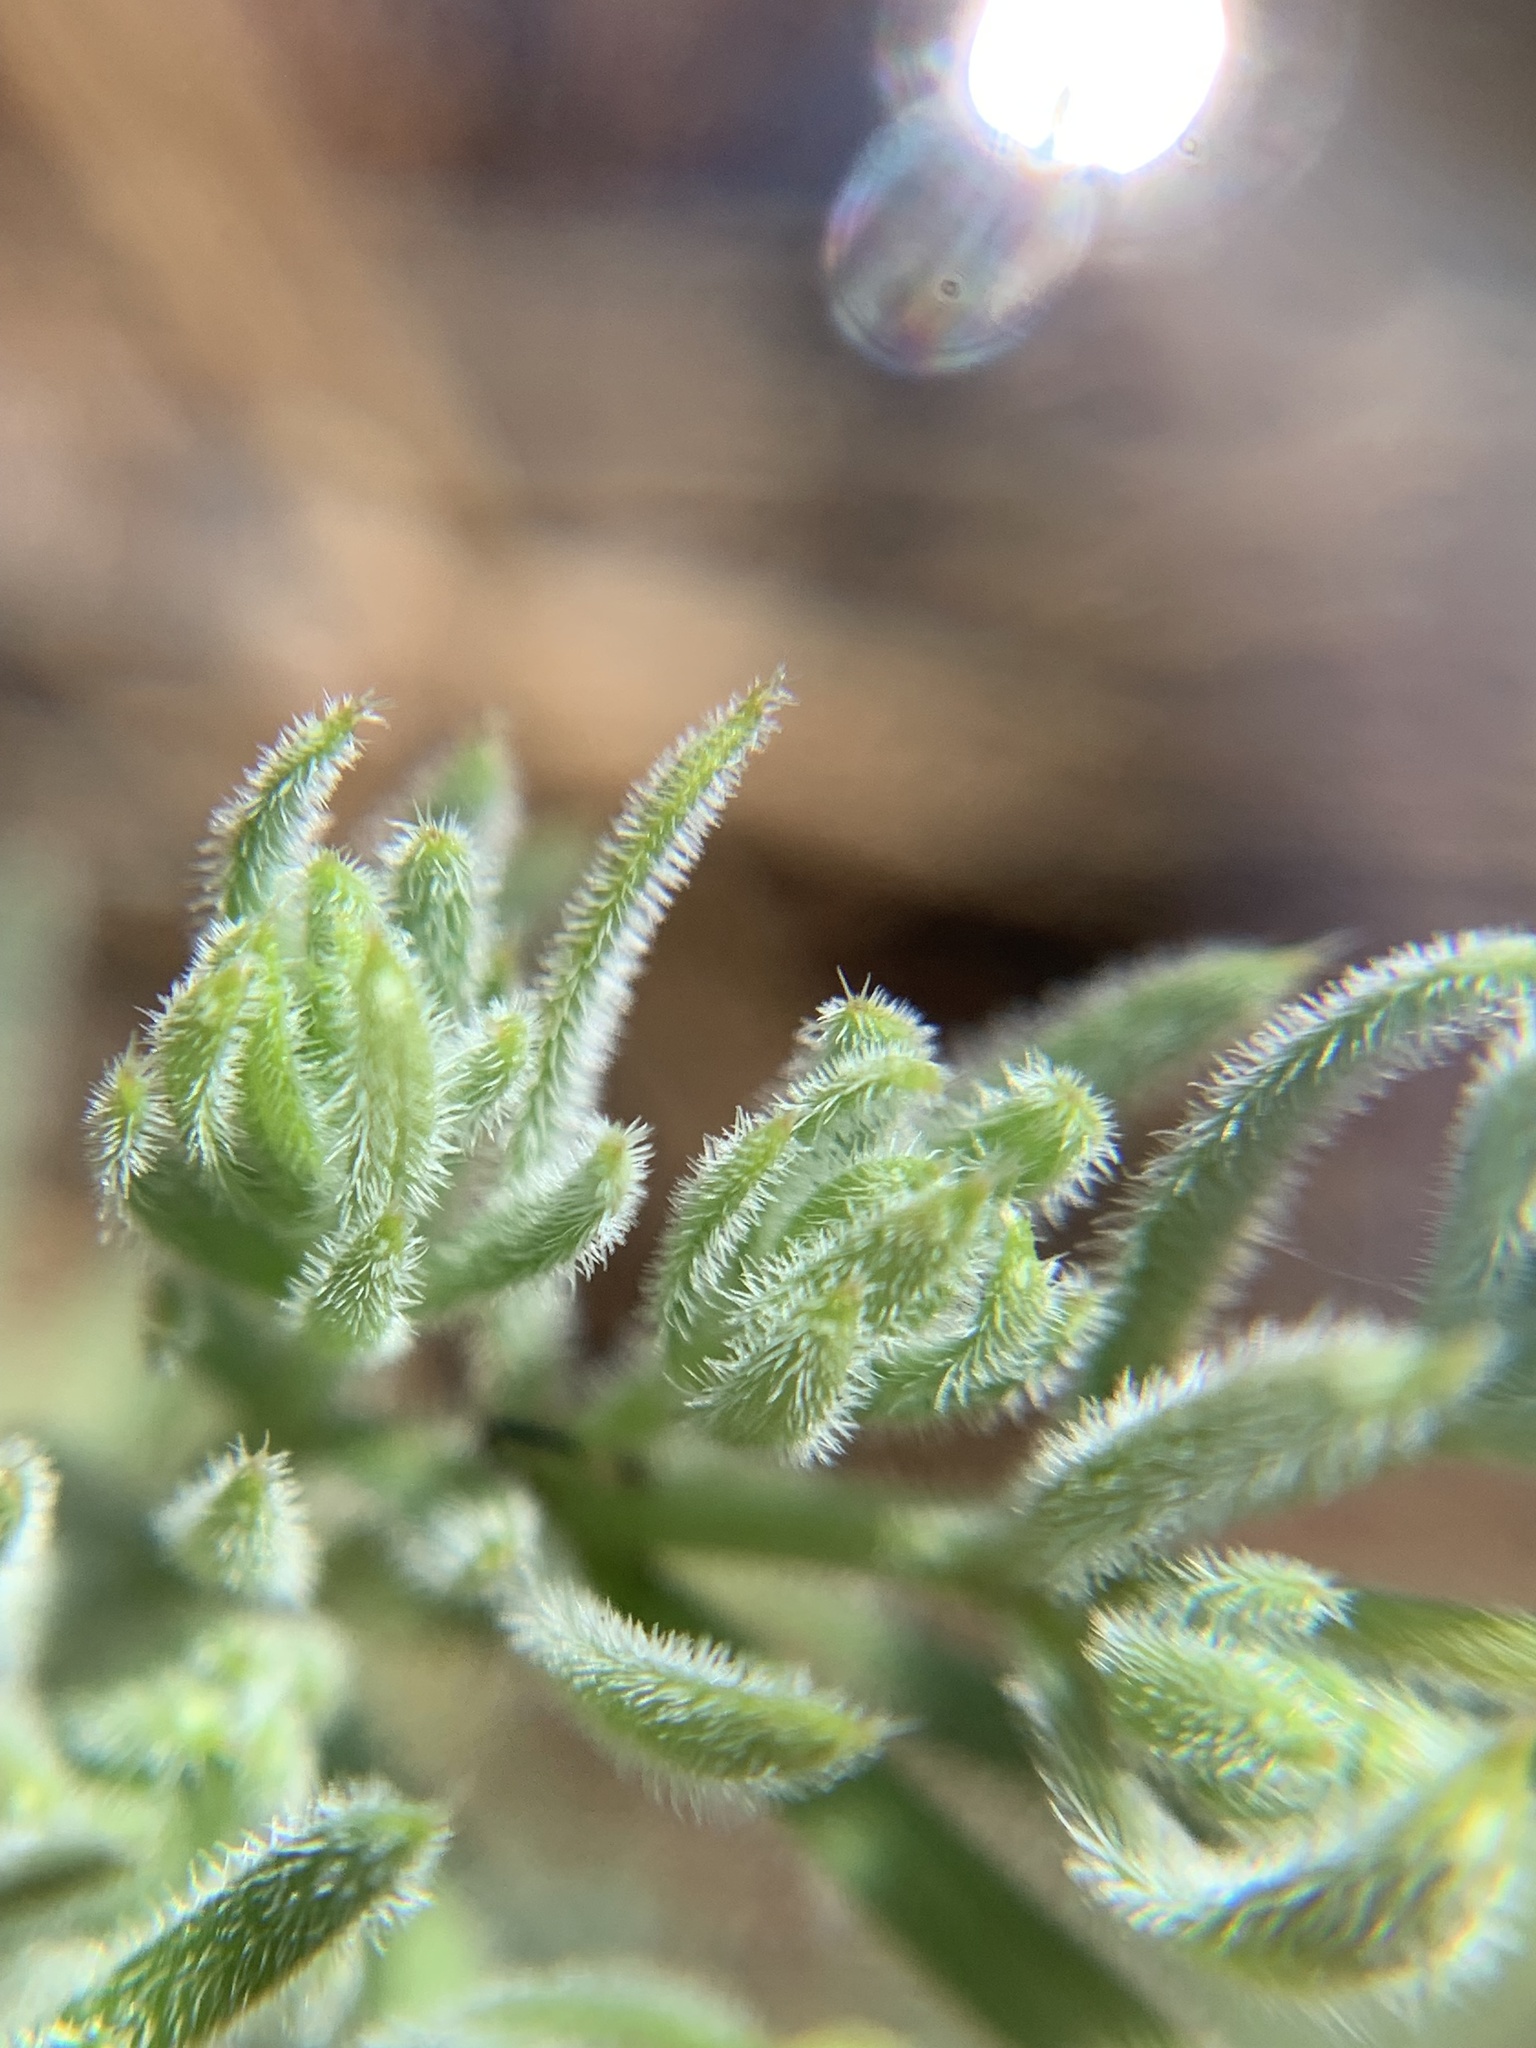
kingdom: Plantae
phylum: Tracheophyta
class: Magnoliopsida
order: Gentianales
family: Rubiaceae
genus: Galium
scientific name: Galium stebbinsii
